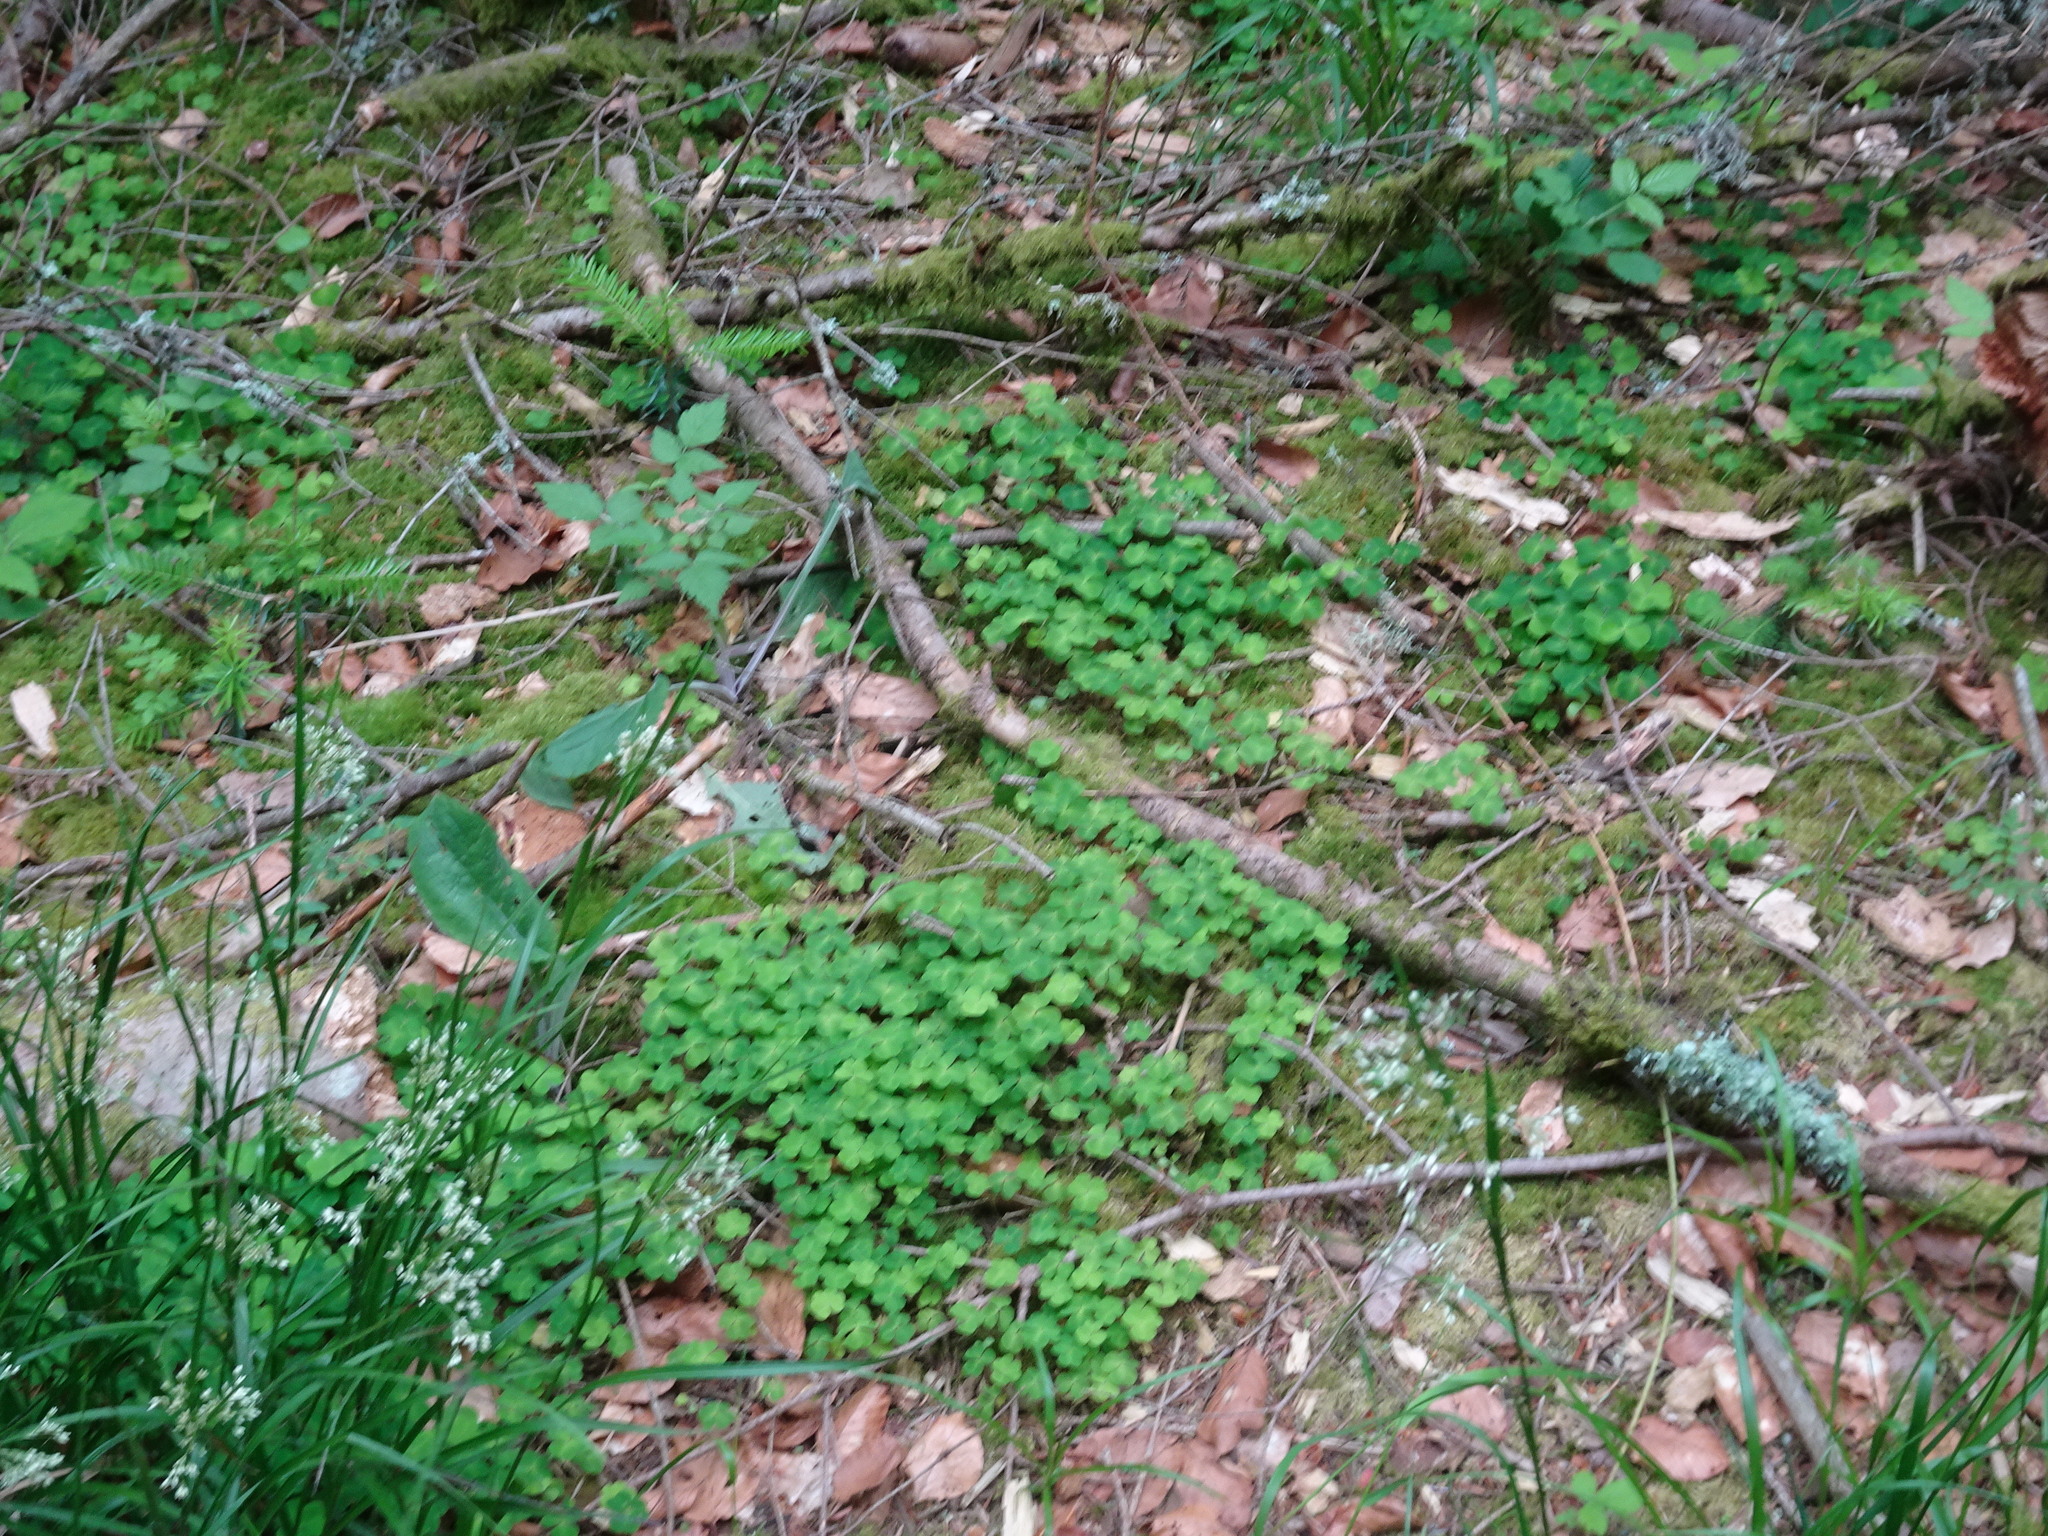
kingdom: Plantae
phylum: Tracheophyta
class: Magnoliopsida
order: Oxalidales
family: Oxalidaceae
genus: Oxalis
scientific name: Oxalis acetosella
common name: Wood-sorrel
